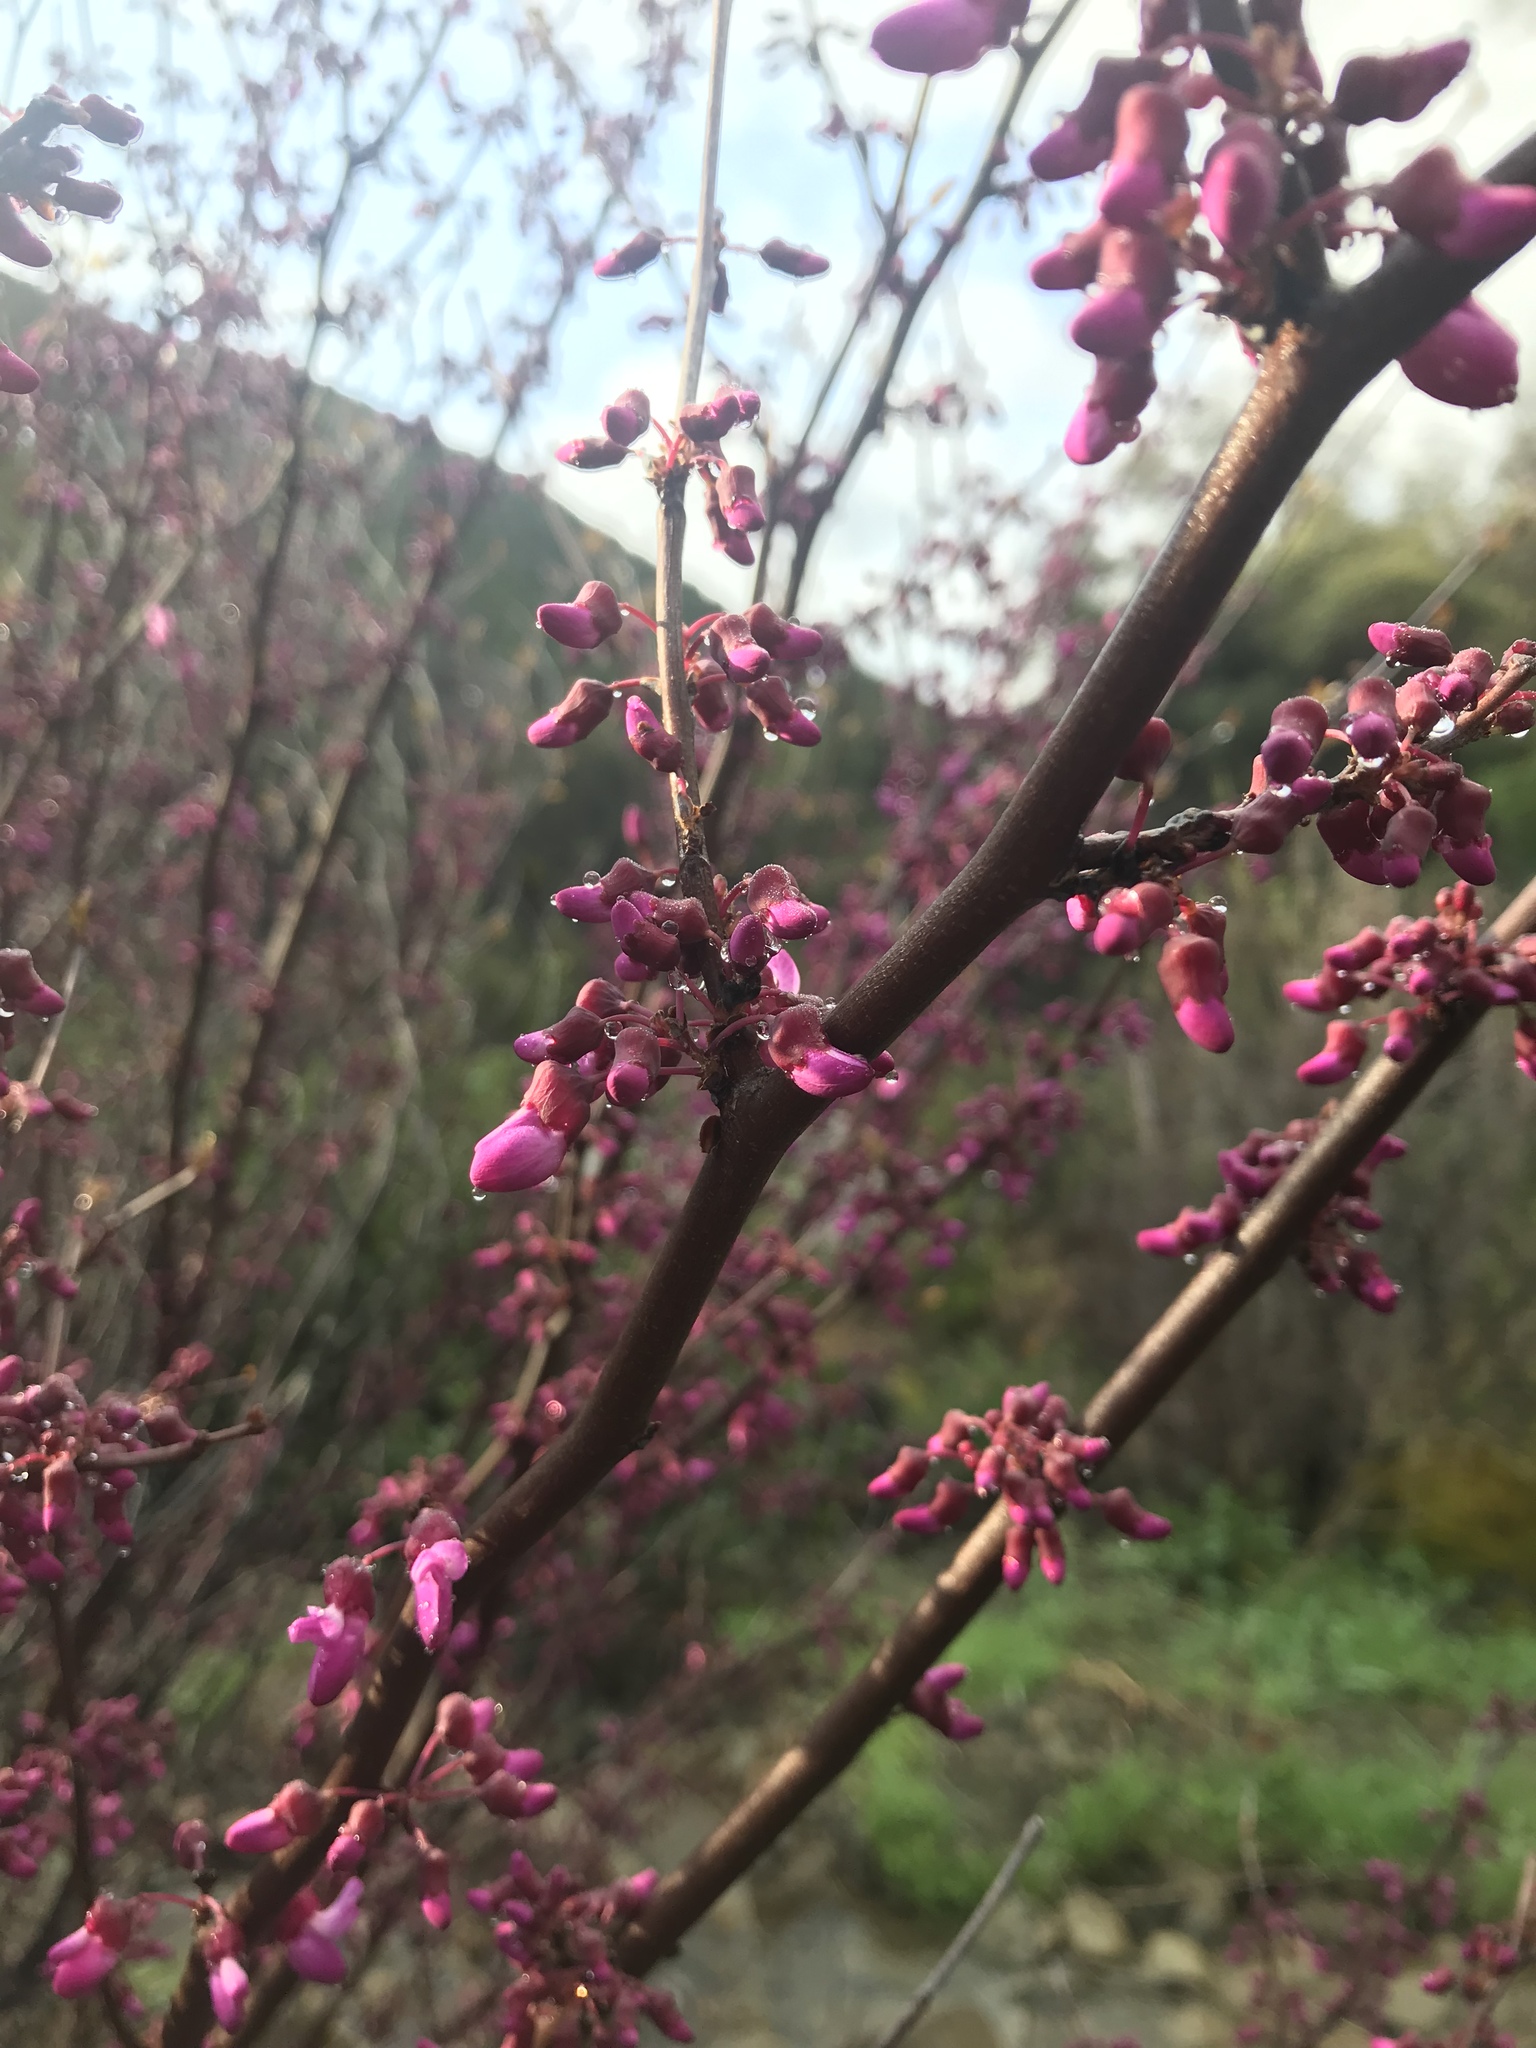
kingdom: Plantae
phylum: Tracheophyta
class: Magnoliopsida
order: Fabales
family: Fabaceae
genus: Cercis
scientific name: Cercis occidentalis
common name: California redbud
